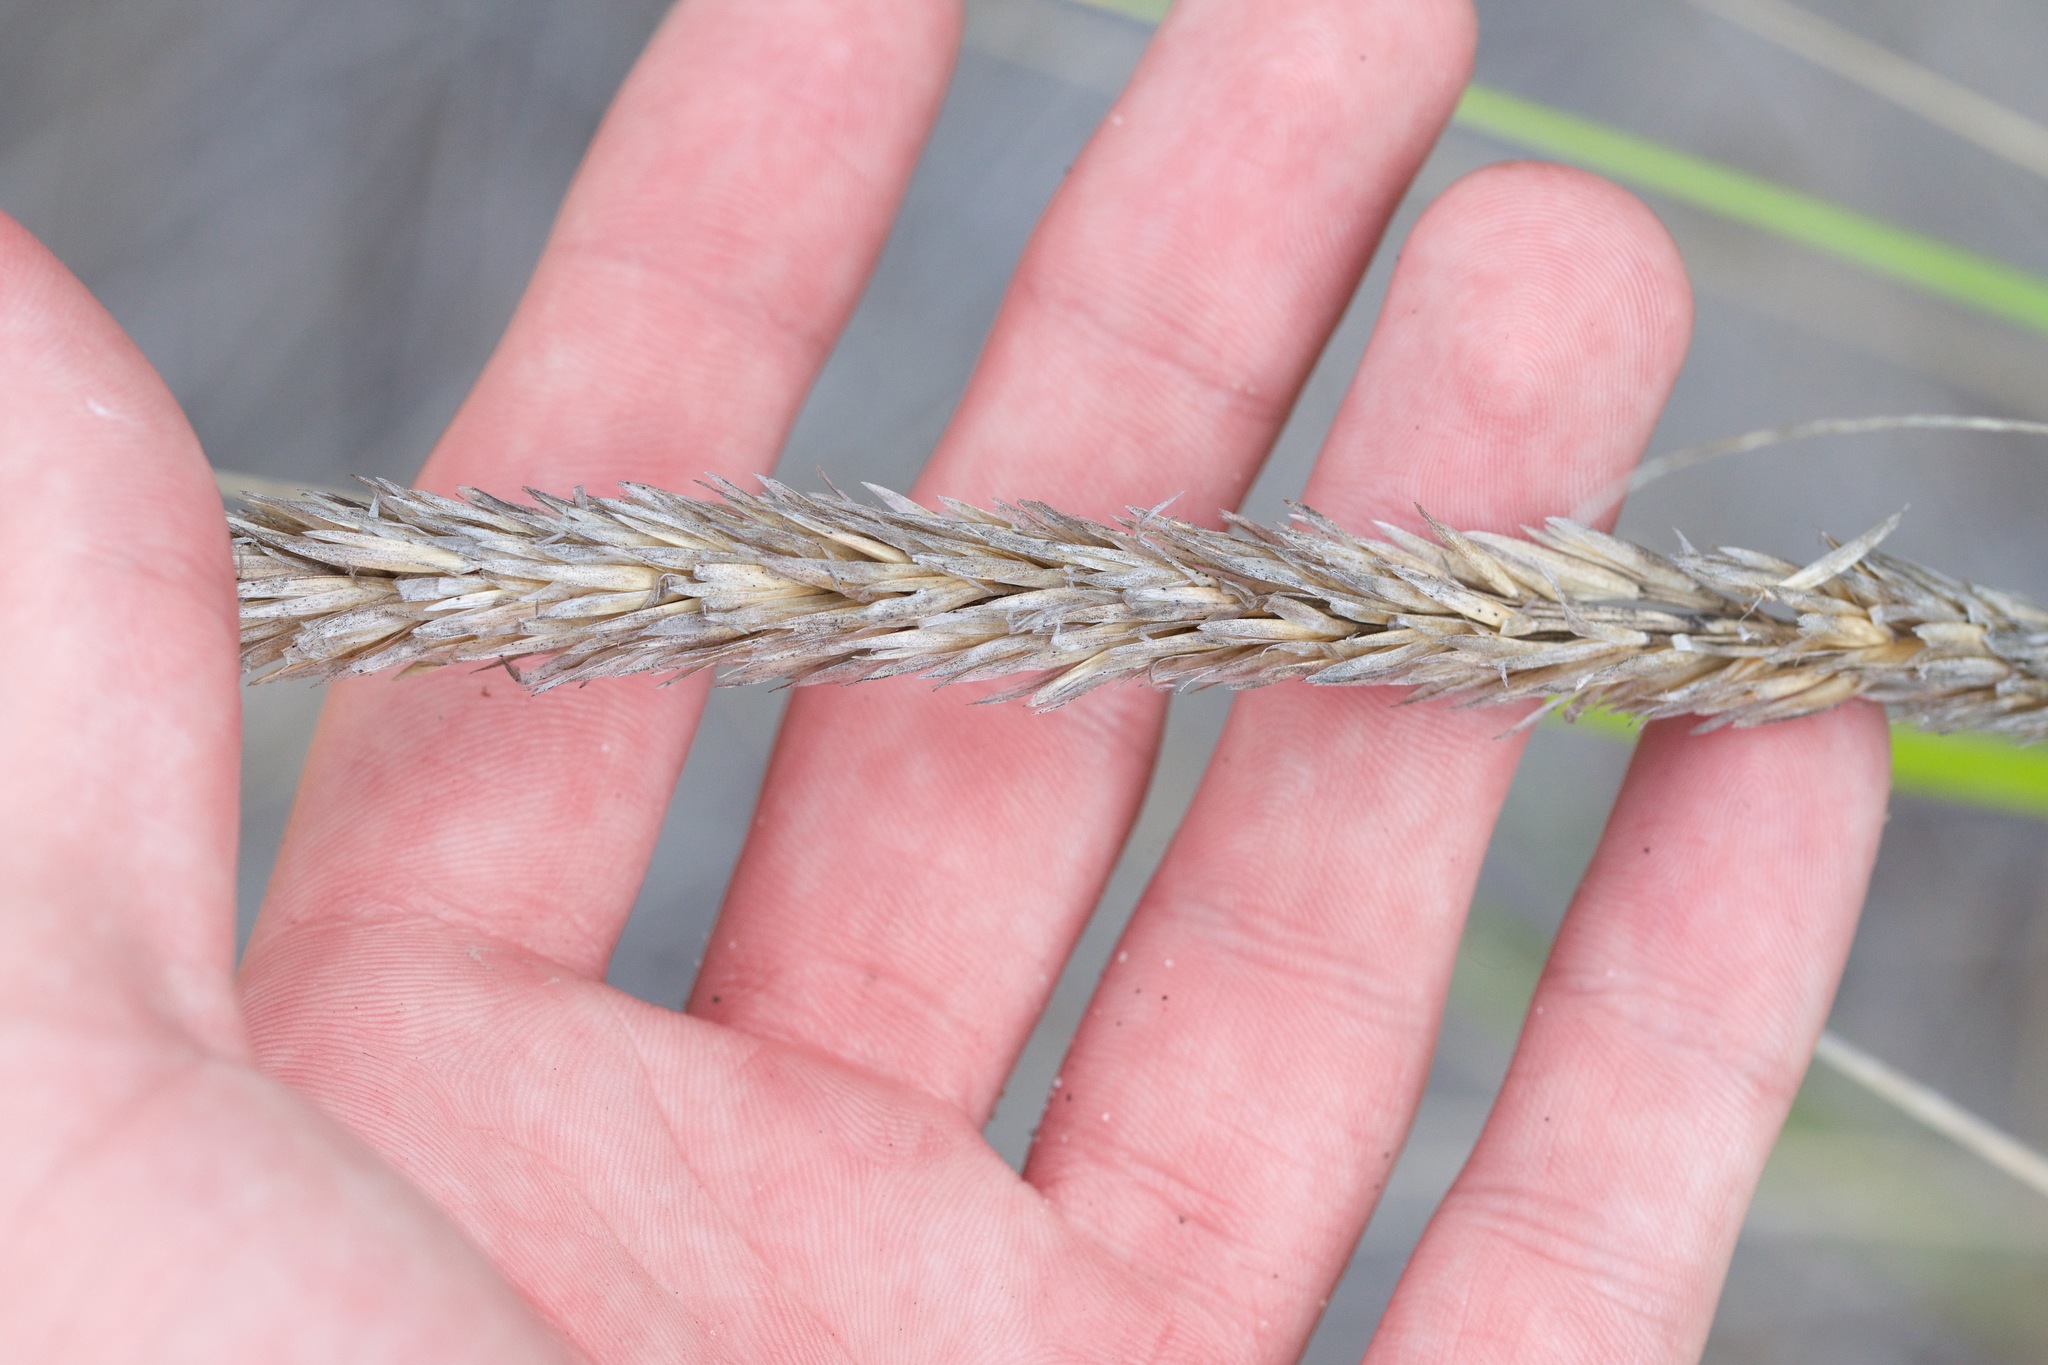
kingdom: Plantae
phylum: Tracheophyta
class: Liliopsida
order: Poales
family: Poaceae
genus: Calamagrostis
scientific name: Calamagrostis breviligulata
